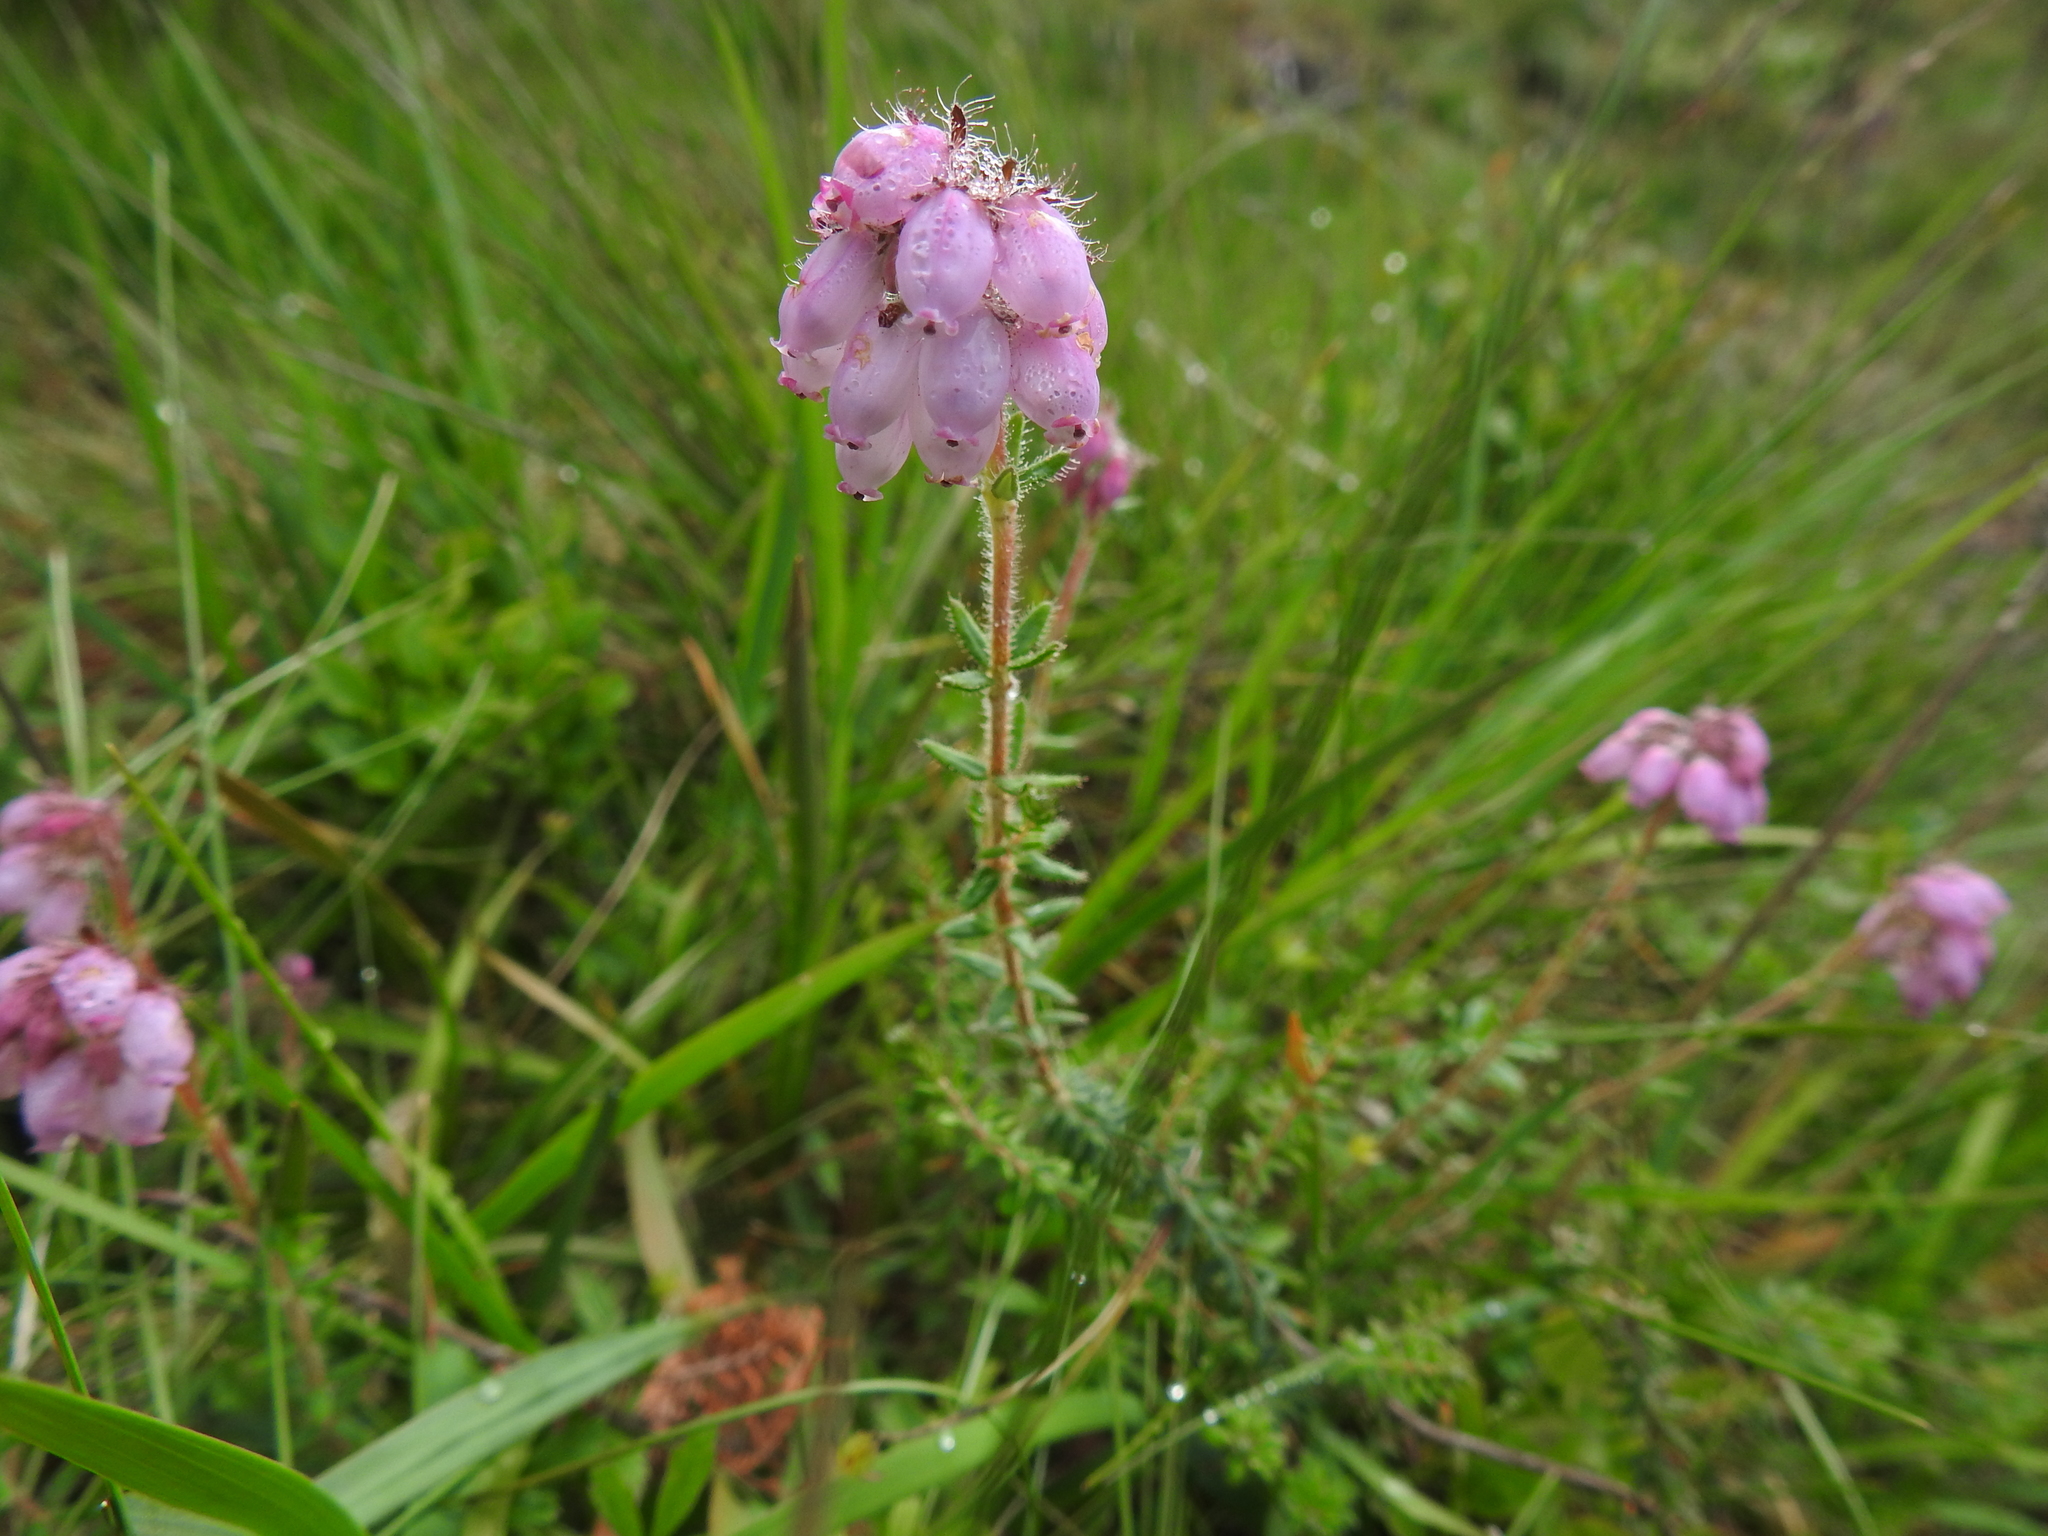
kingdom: Plantae
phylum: Tracheophyta
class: Magnoliopsida
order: Ericales
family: Ericaceae
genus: Erica
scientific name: Erica tetralix
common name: Cross-leaved heath
